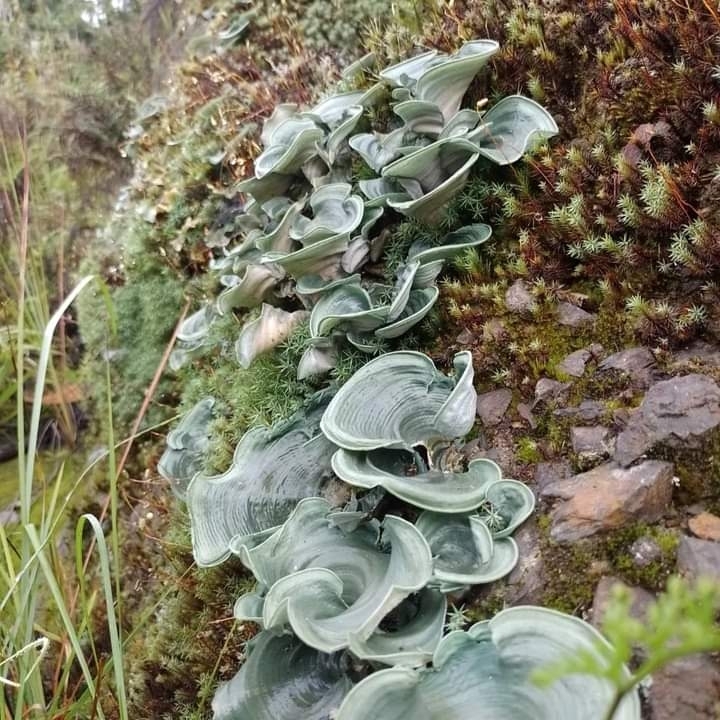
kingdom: Fungi
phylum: Basidiomycota
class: Agaricomycetes
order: Agaricales
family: Hygrophoraceae
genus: Cora
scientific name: Cora glabrata
